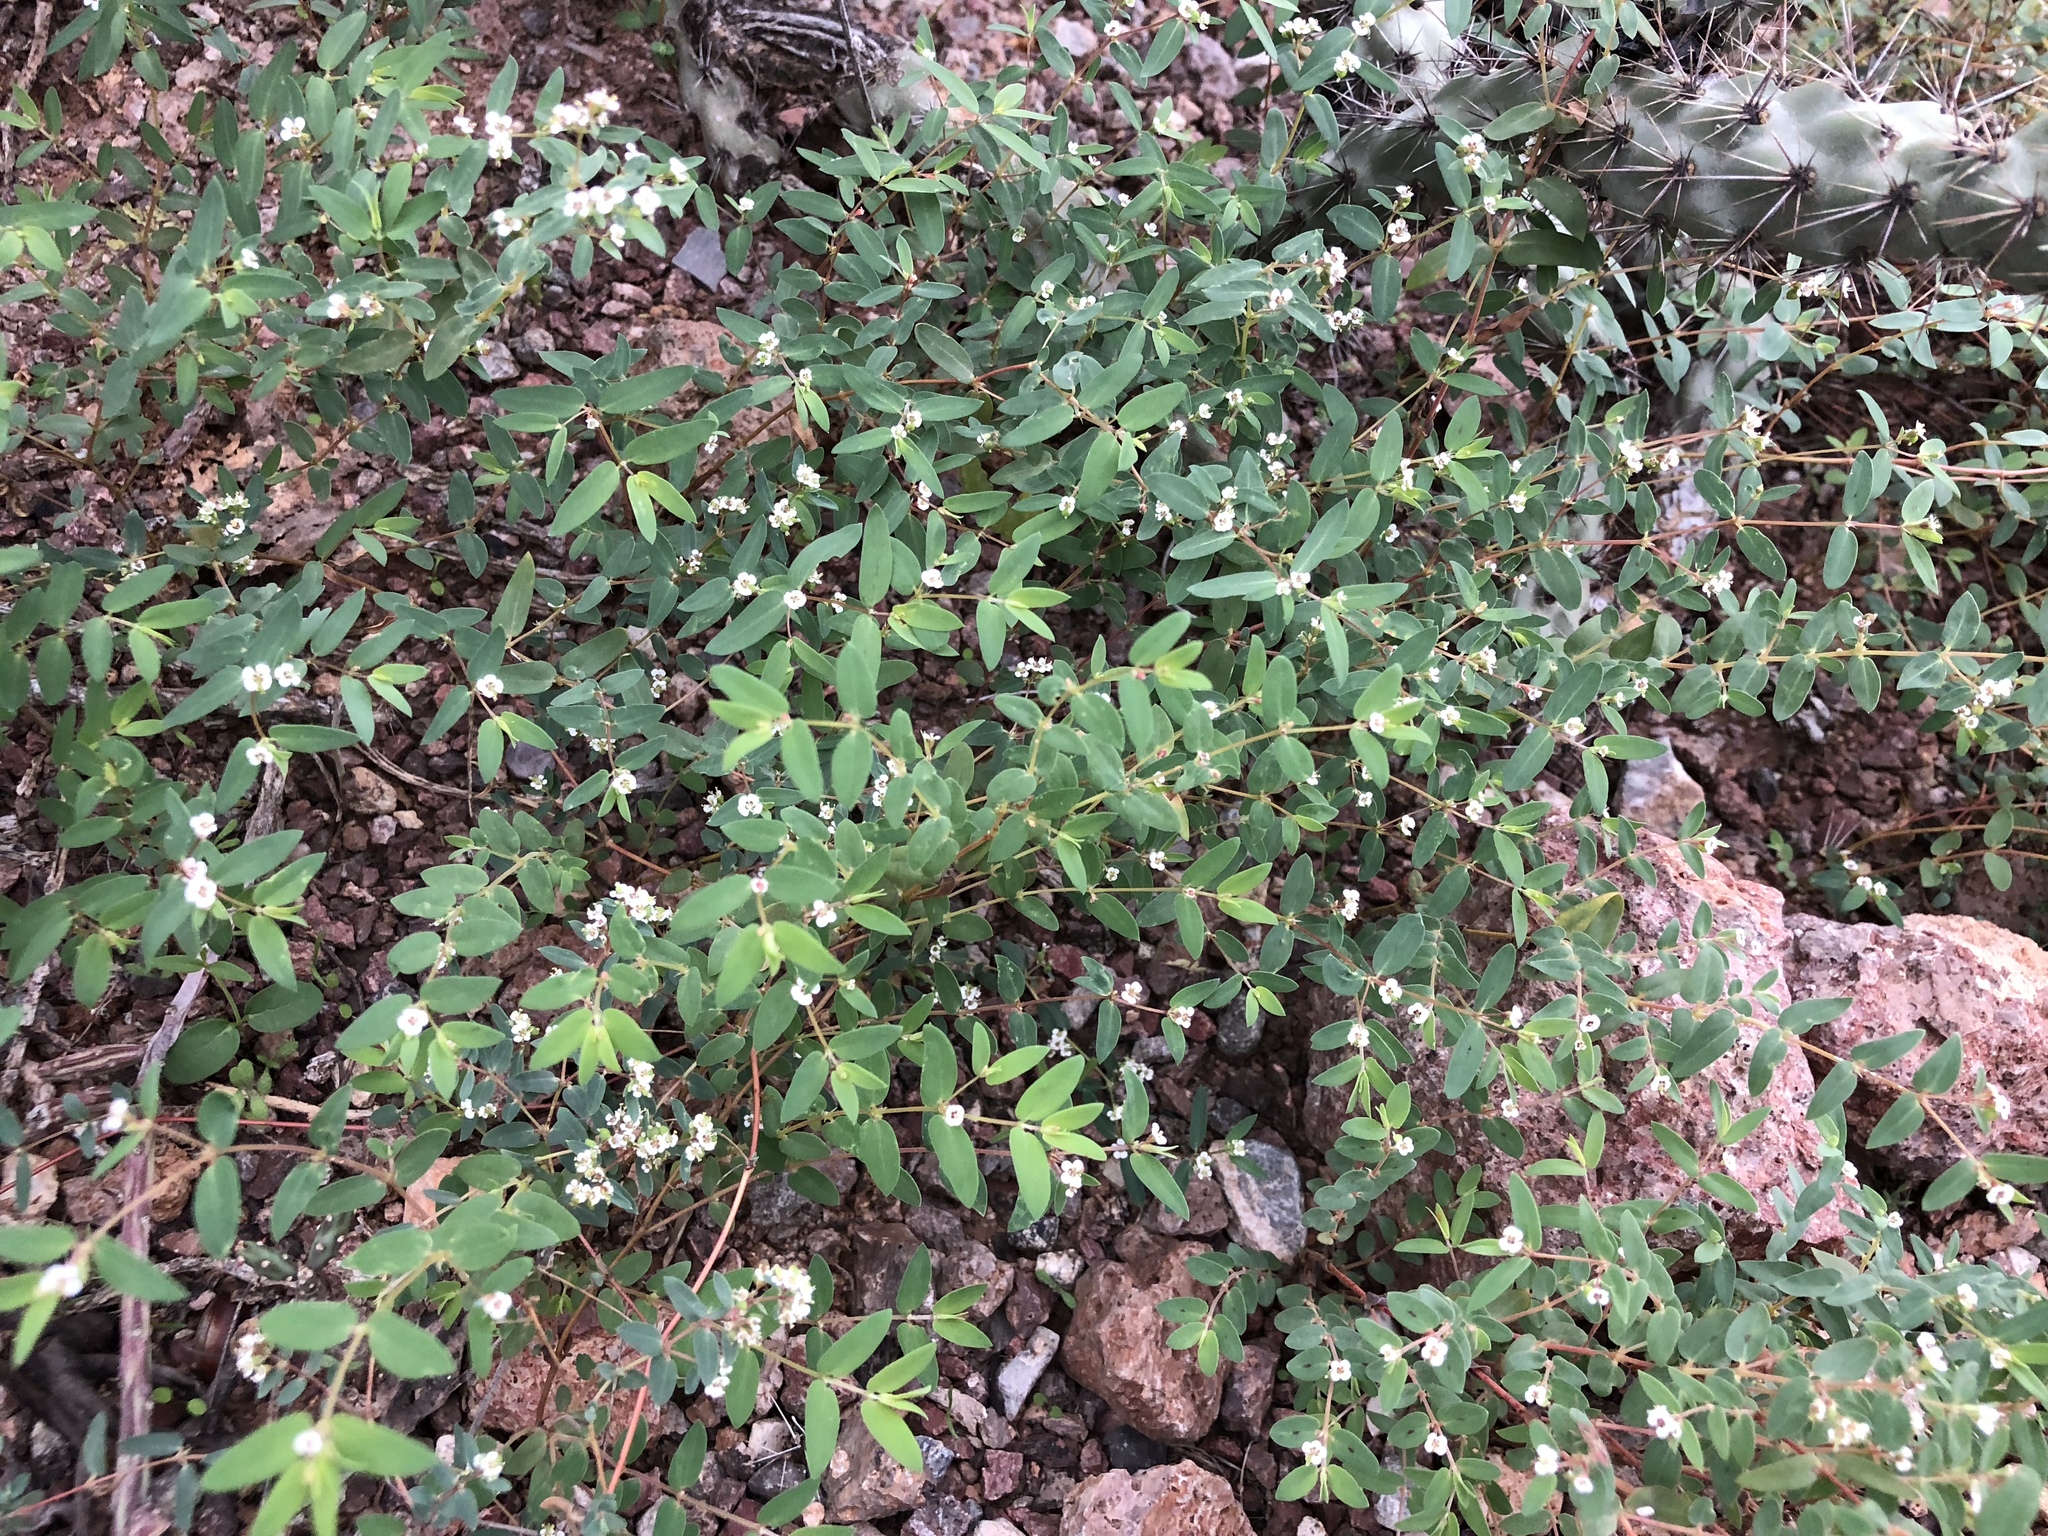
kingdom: Plantae
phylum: Tracheophyta
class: Magnoliopsida
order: Malpighiales
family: Euphorbiaceae
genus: Euphorbia
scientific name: Euphorbia capitellata
